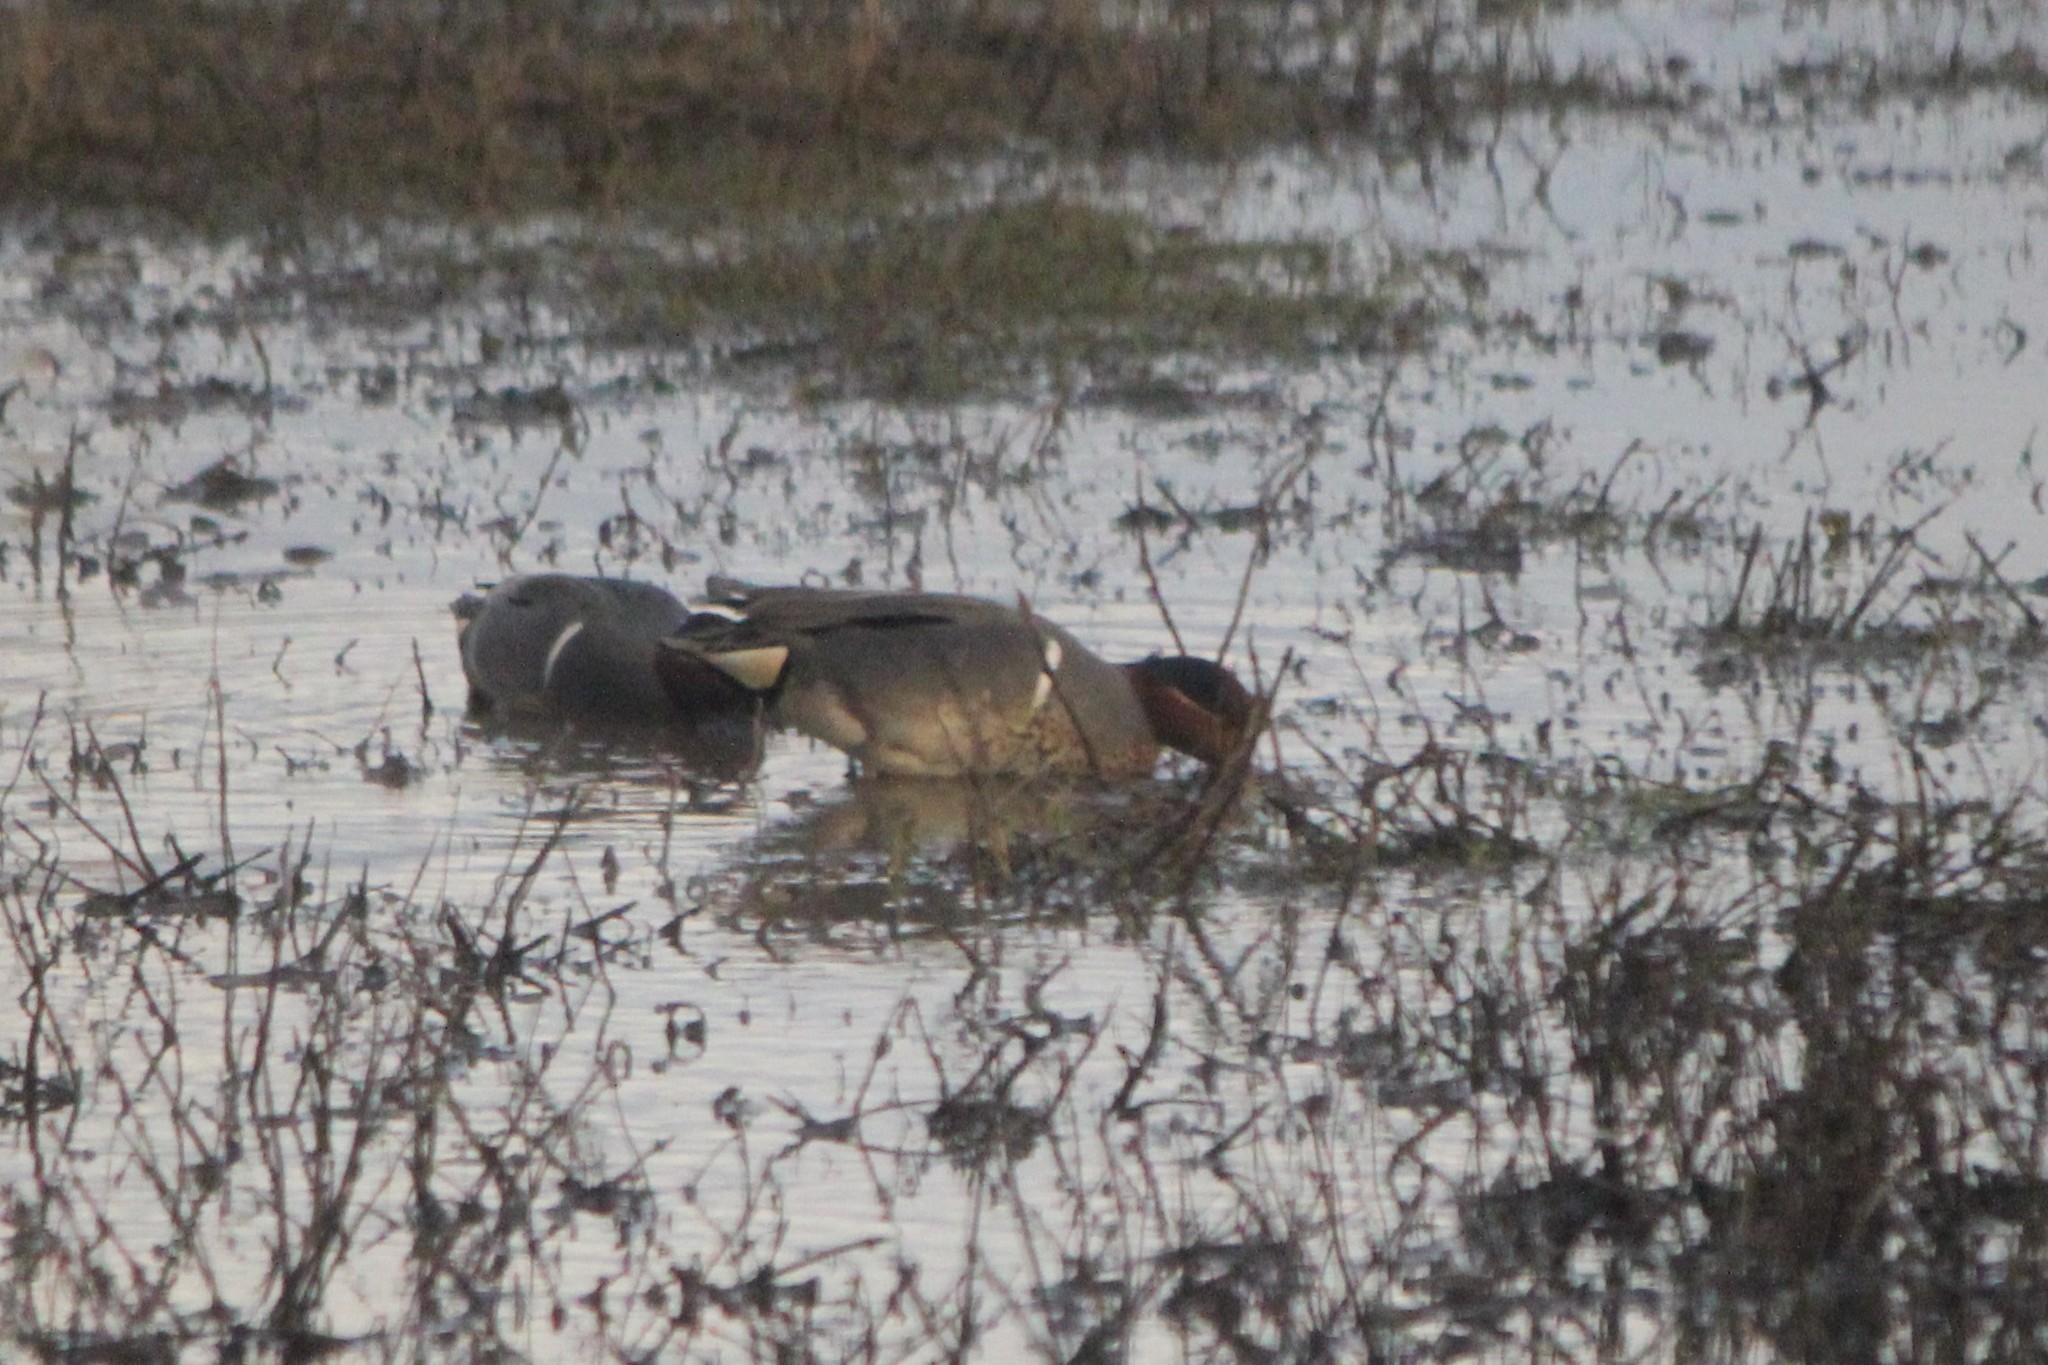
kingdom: Animalia
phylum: Chordata
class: Aves
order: Anseriformes
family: Anatidae
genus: Anas
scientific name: Anas crecca
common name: Eurasian teal
